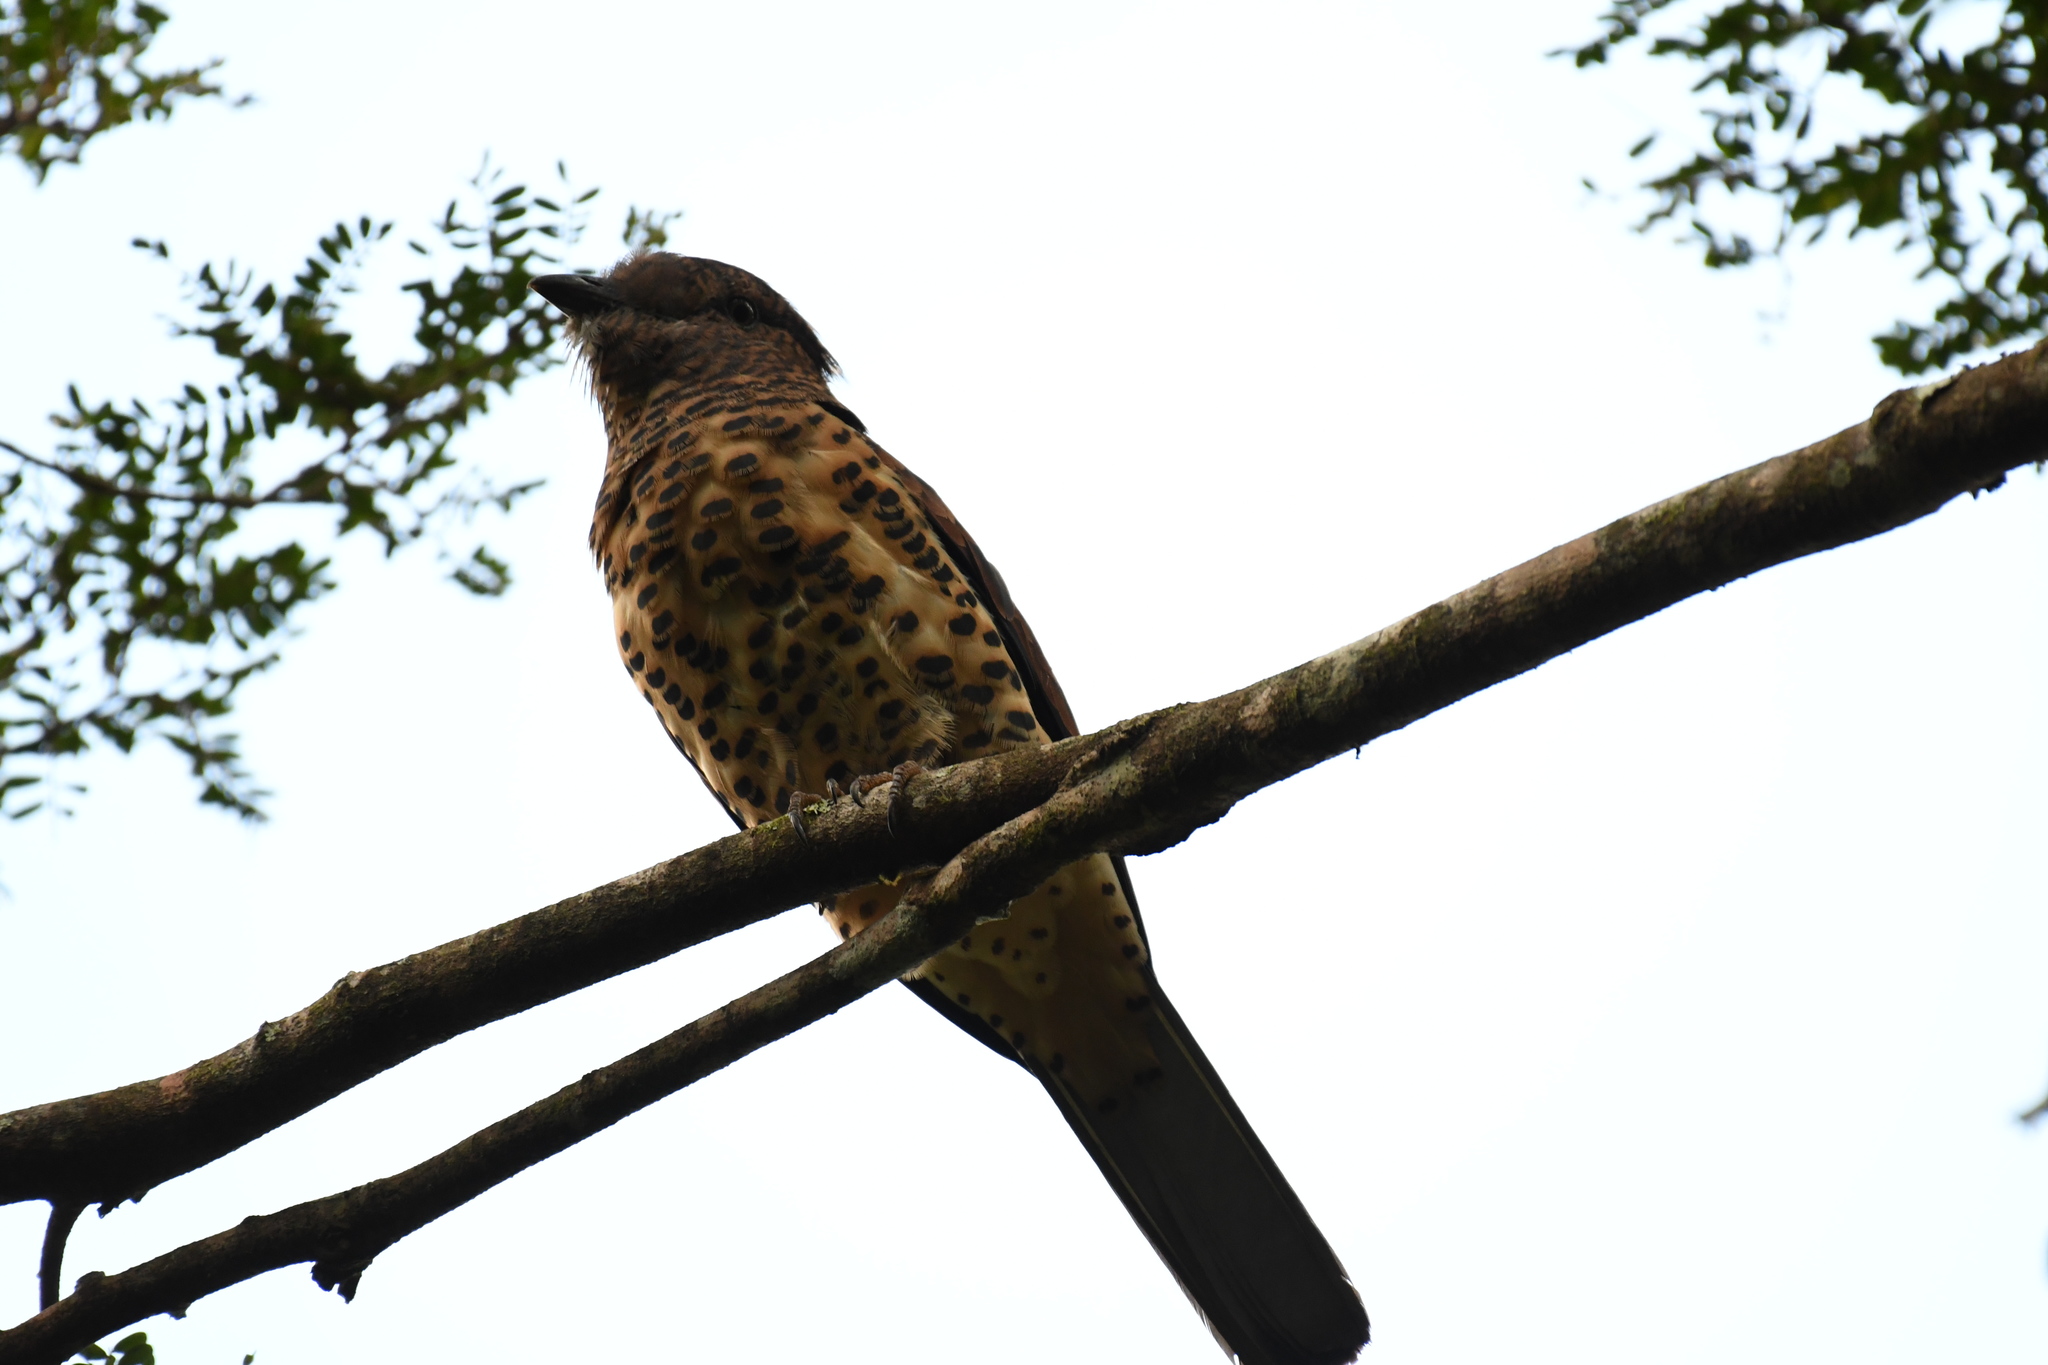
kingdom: Animalia
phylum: Chordata
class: Aves
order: Leptosomiformes
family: Leptosomidae
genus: Leptosomus
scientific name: Leptosomus discolor
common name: Cuckoo roller
